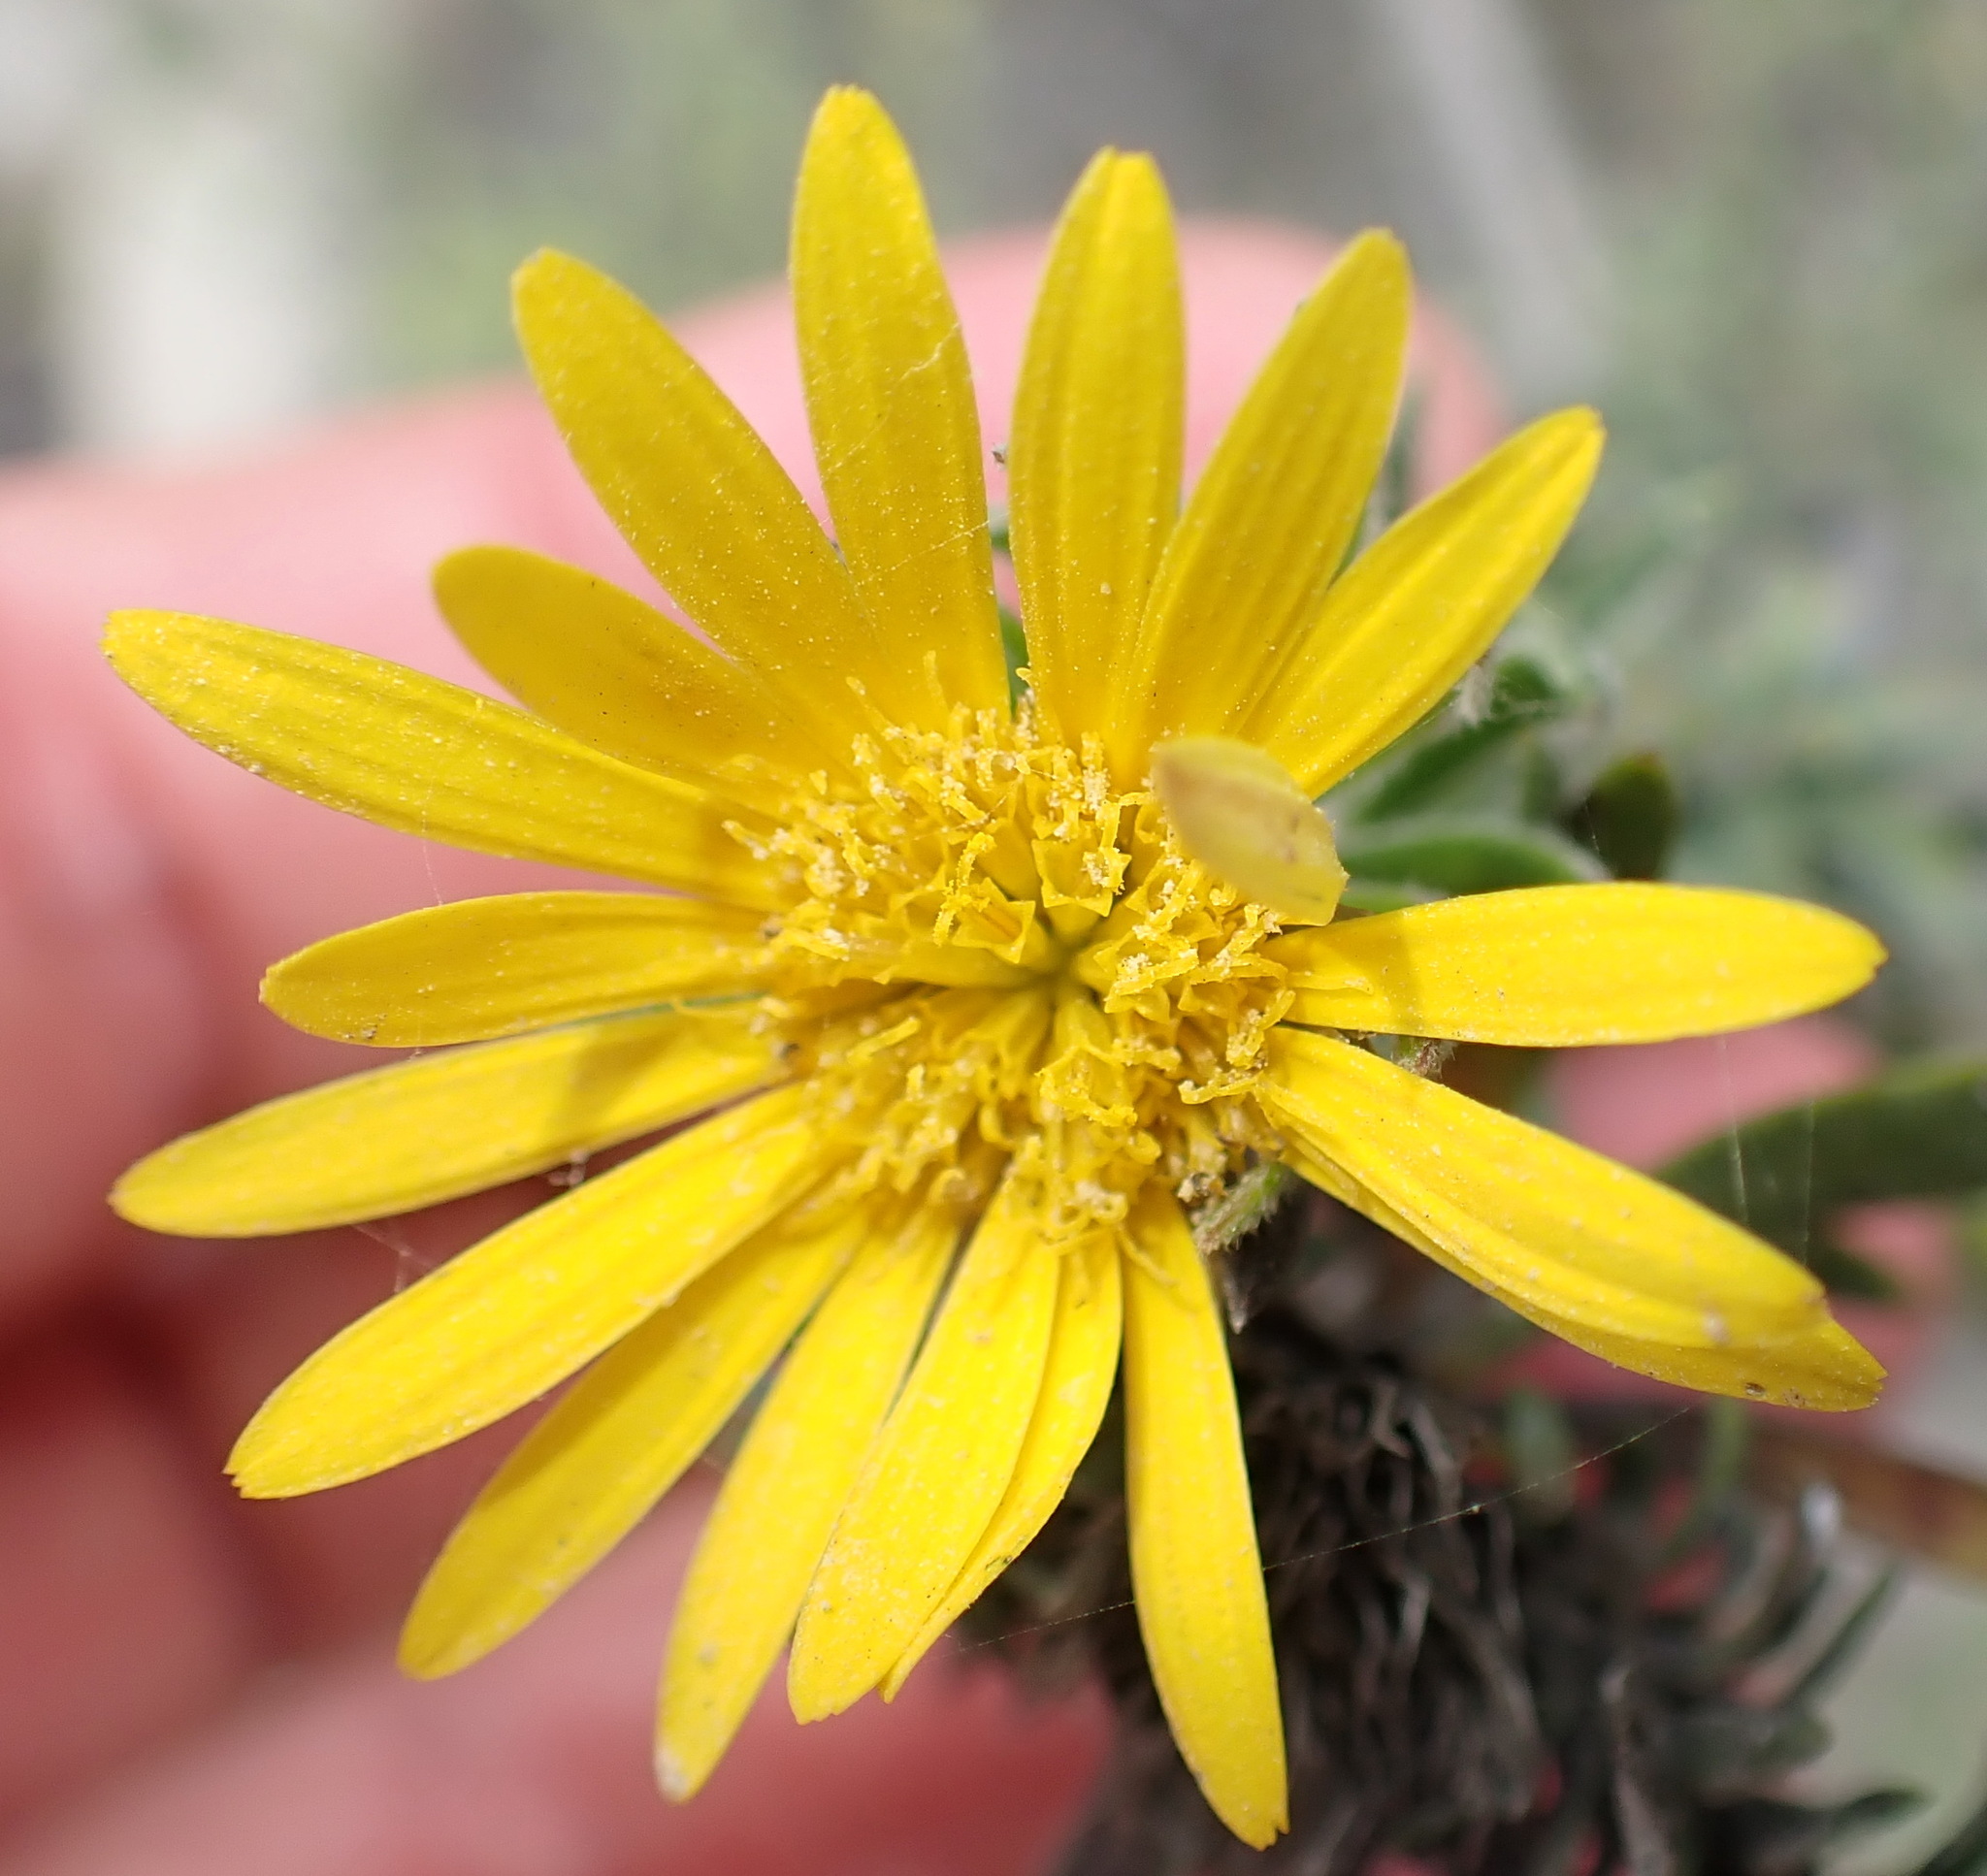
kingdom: Plantae
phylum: Tracheophyta
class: Magnoliopsida
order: Asterales
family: Asteraceae
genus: Oedera
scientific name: Oedera calycina
